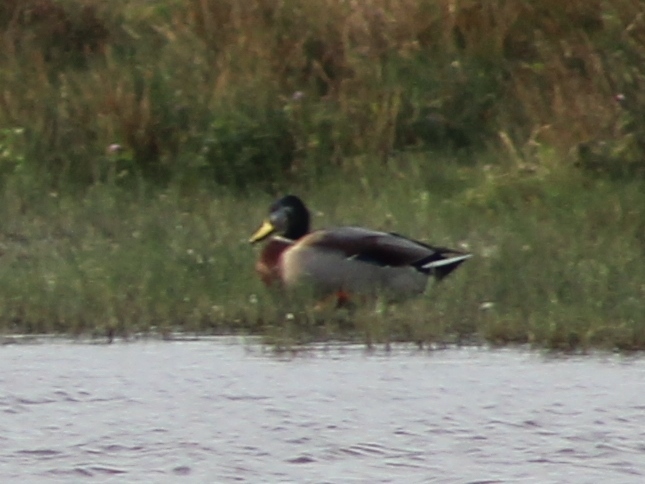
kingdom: Animalia
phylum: Chordata
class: Aves
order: Anseriformes
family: Anatidae
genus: Anas
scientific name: Anas platyrhynchos
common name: Mallard
